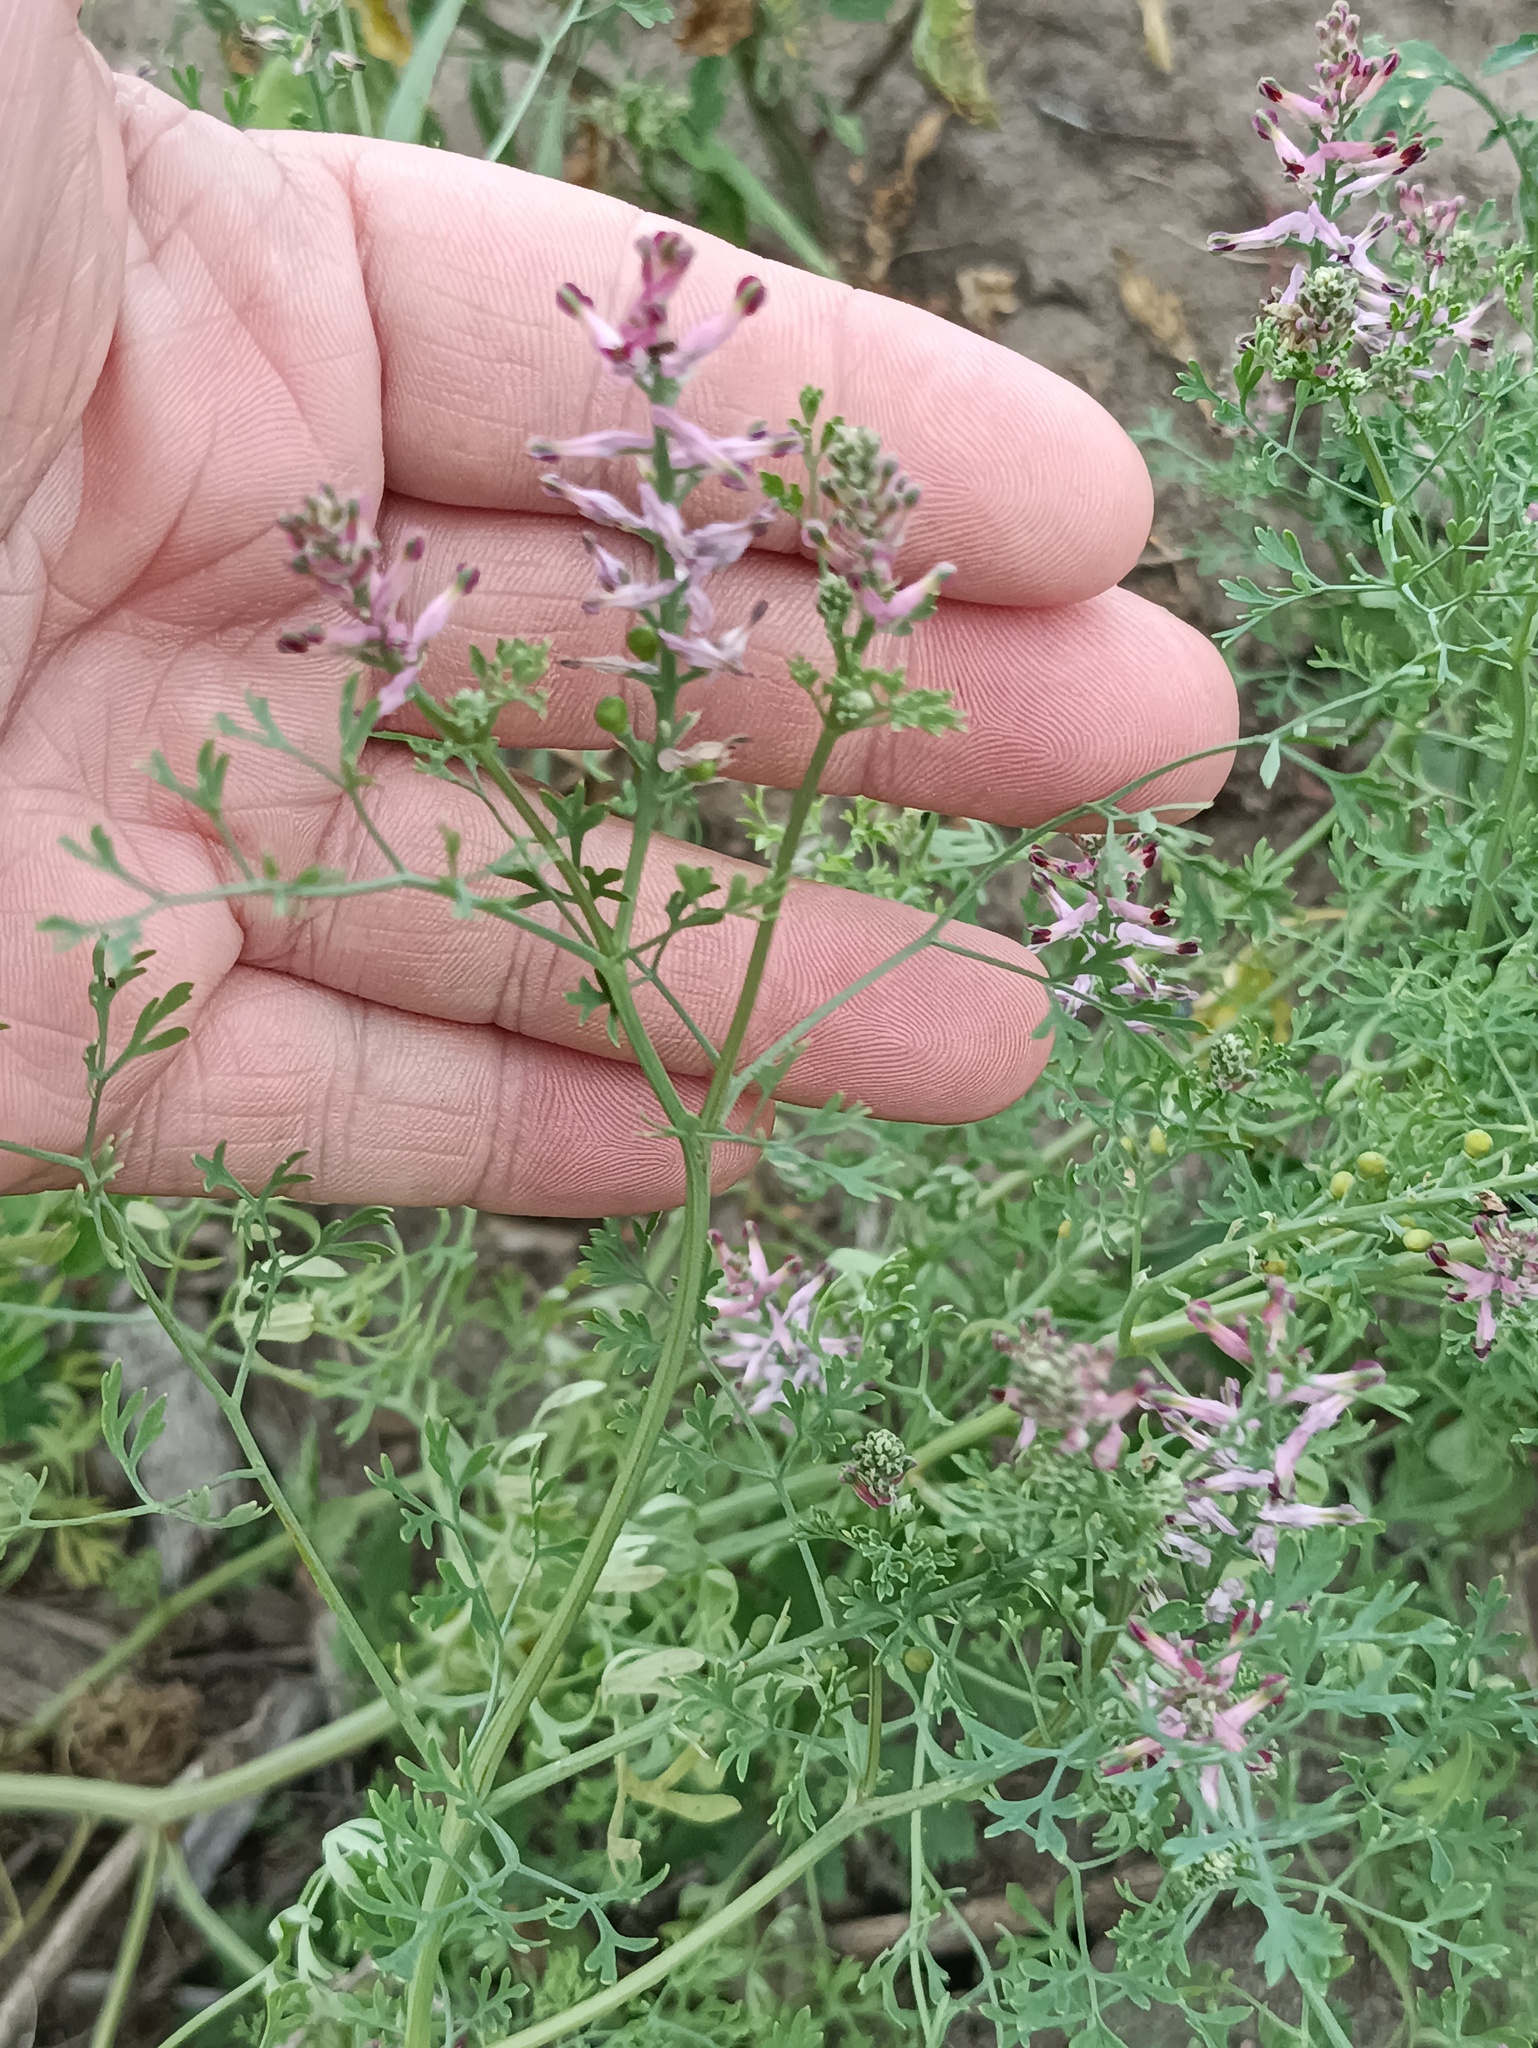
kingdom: Plantae
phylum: Tracheophyta
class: Magnoliopsida
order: Ranunculales
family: Papaveraceae
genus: Fumaria
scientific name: Fumaria officinalis
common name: Common fumitory
